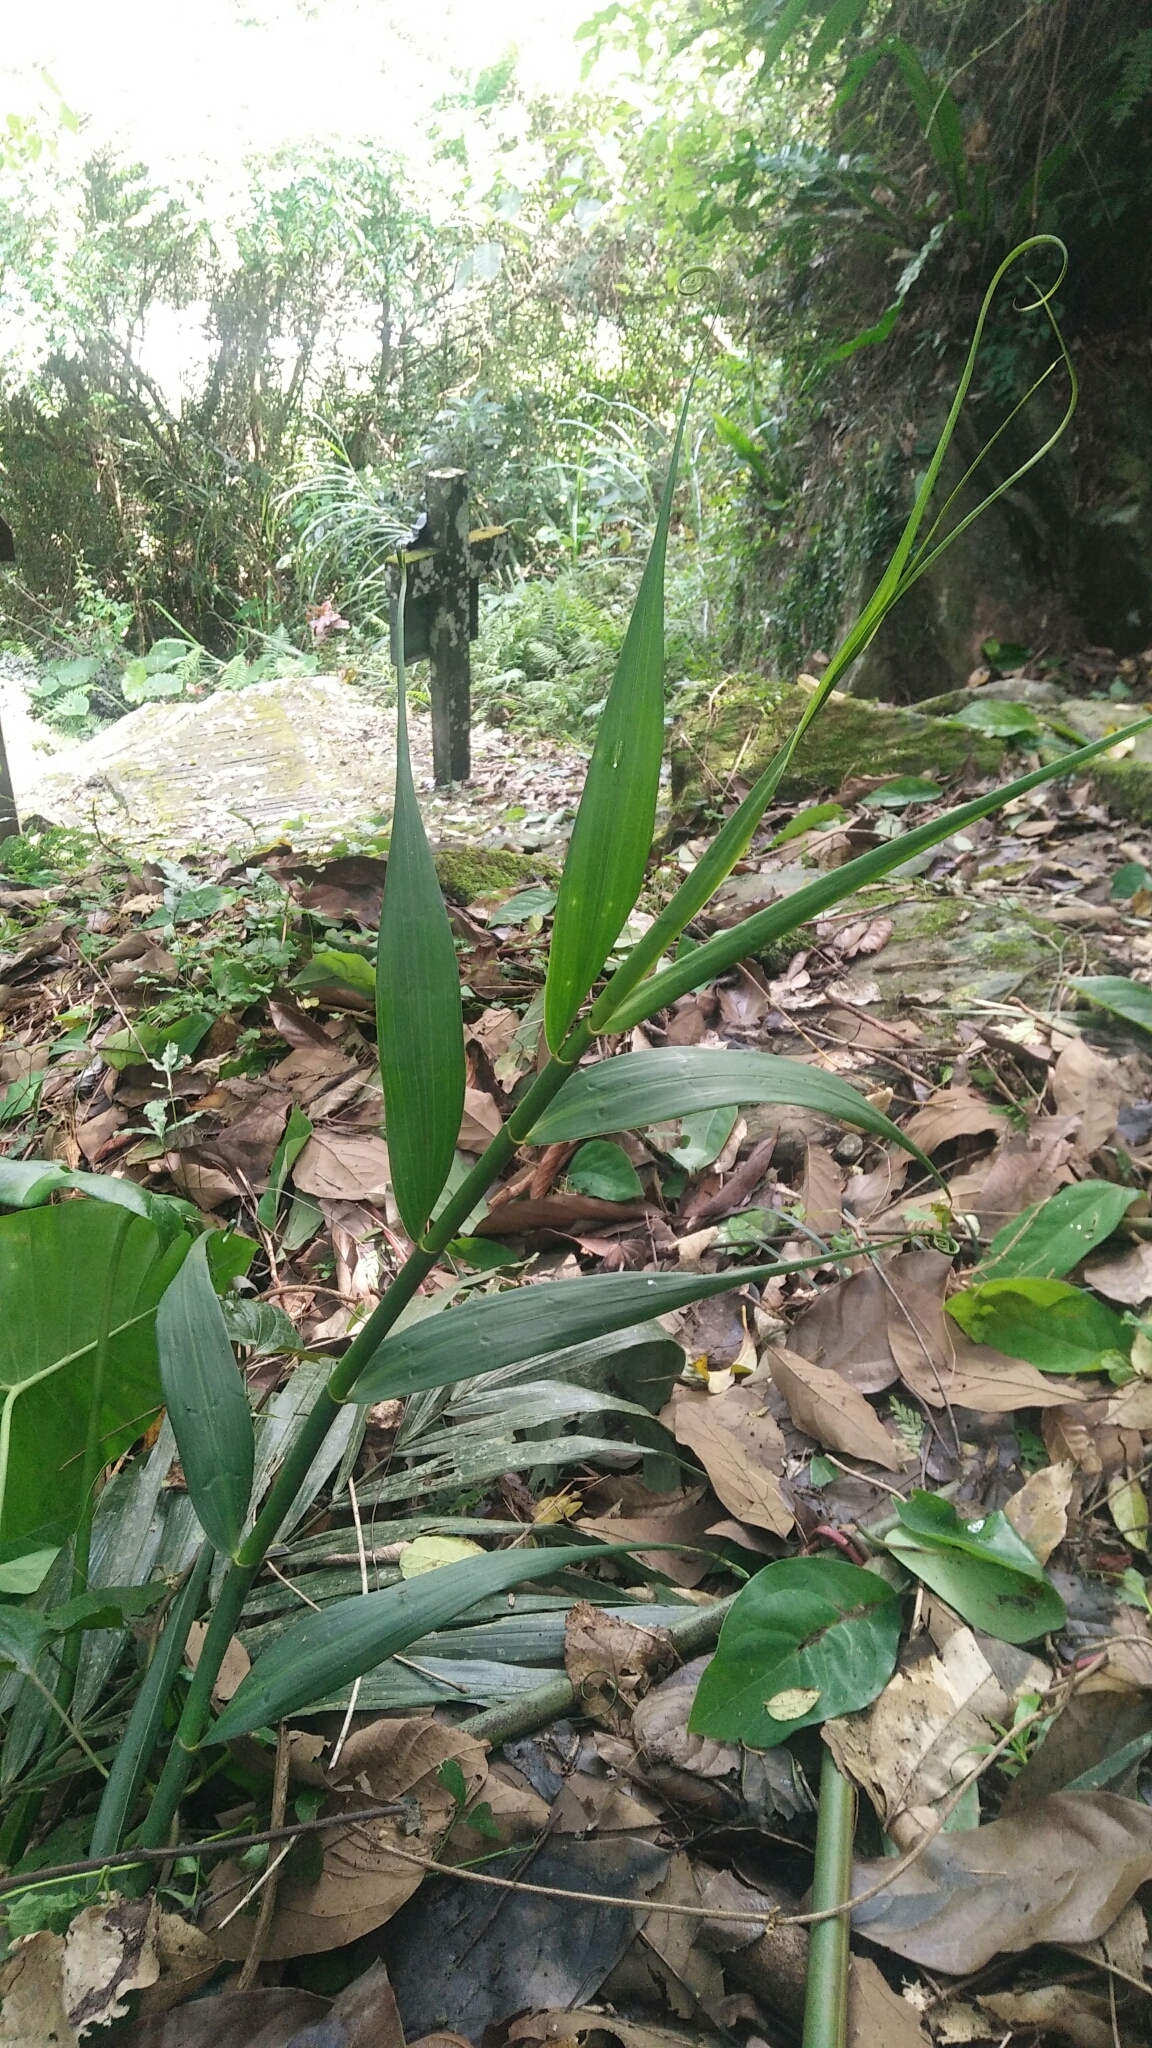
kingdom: Plantae
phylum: Tracheophyta
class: Liliopsida
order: Poales
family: Flagellariaceae
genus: Flagellaria
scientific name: Flagellaria indica
